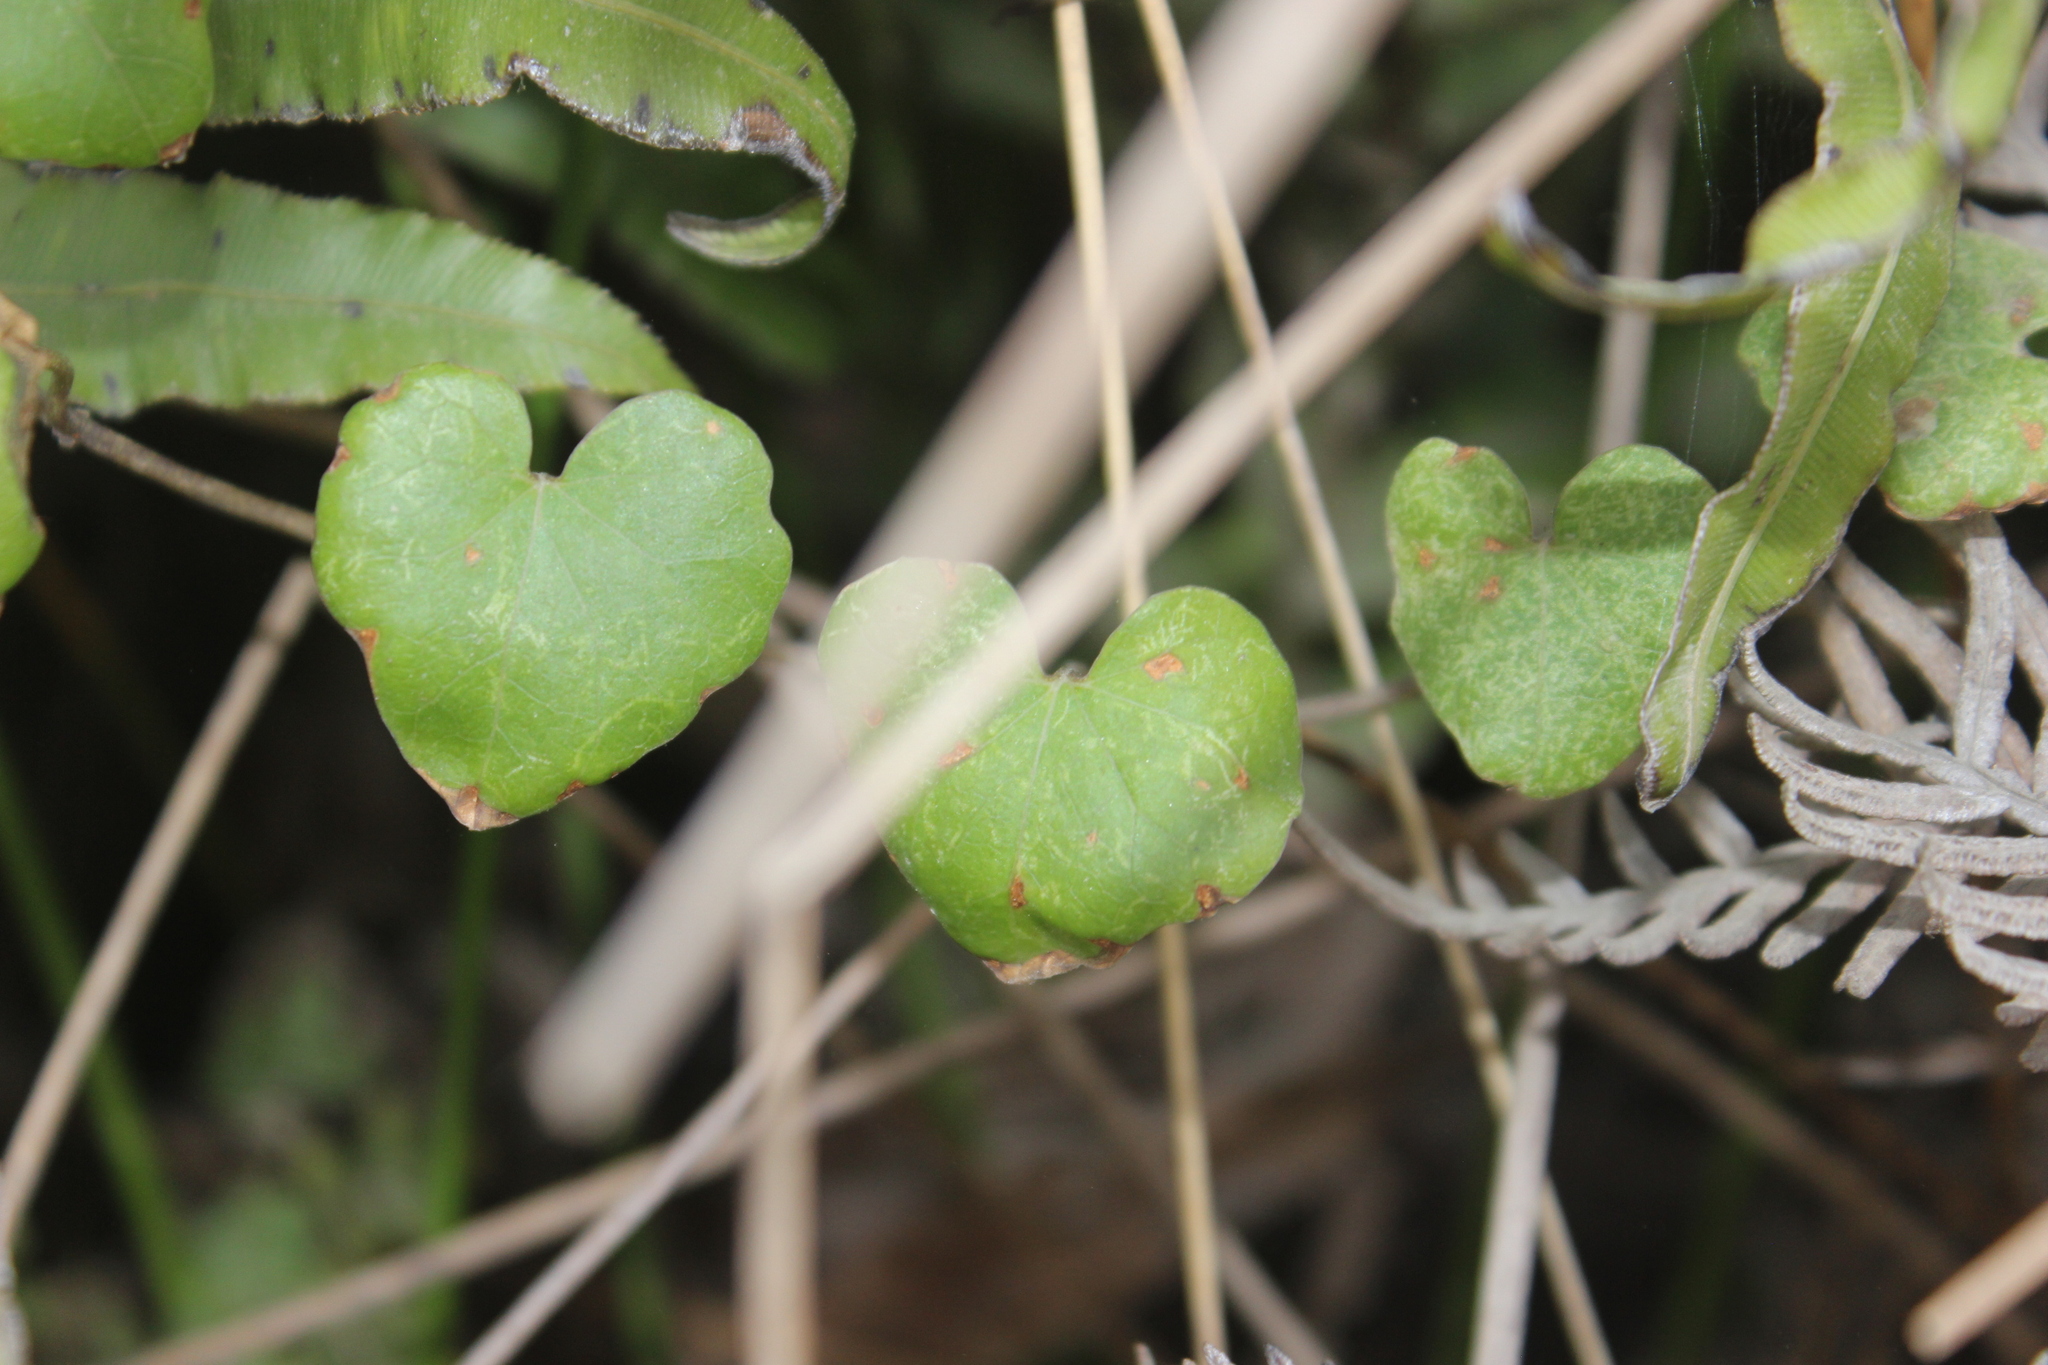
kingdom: Plantae
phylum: Tracheophyta
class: Magnoliopsida
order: Solanales
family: Convolvulaceae
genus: Calystegia
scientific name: Calystegia tuguriorum
